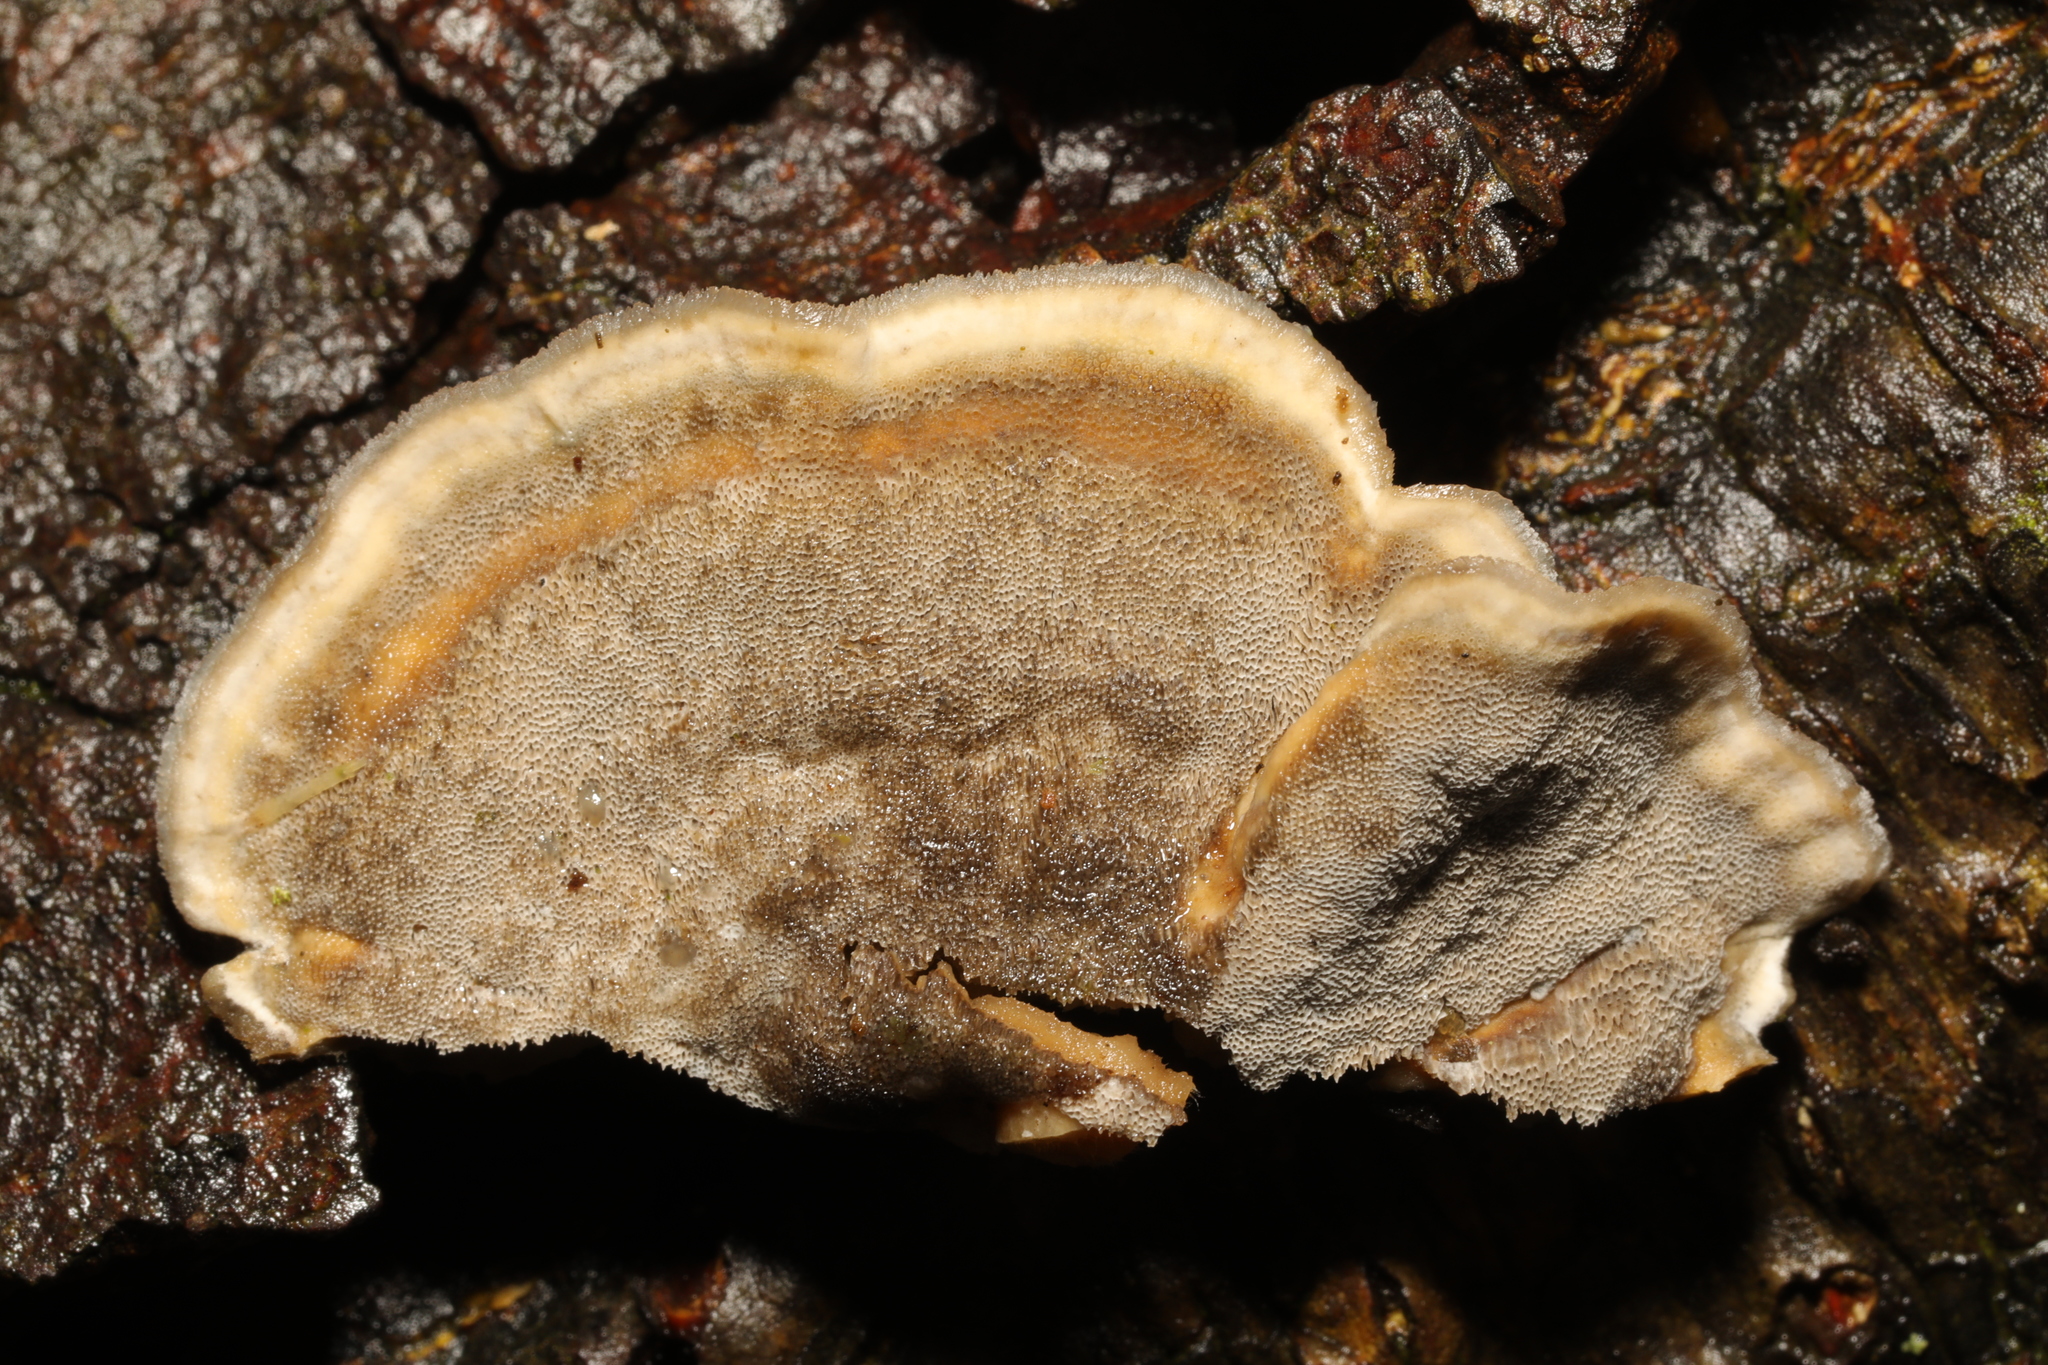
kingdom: Fungi
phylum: Basidiomycota
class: Agaricomycetes
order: Polyporales
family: Phanerochaetaceae
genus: Bjerkandera
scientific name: Bjerkandera adusta
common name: Smoky bracket
